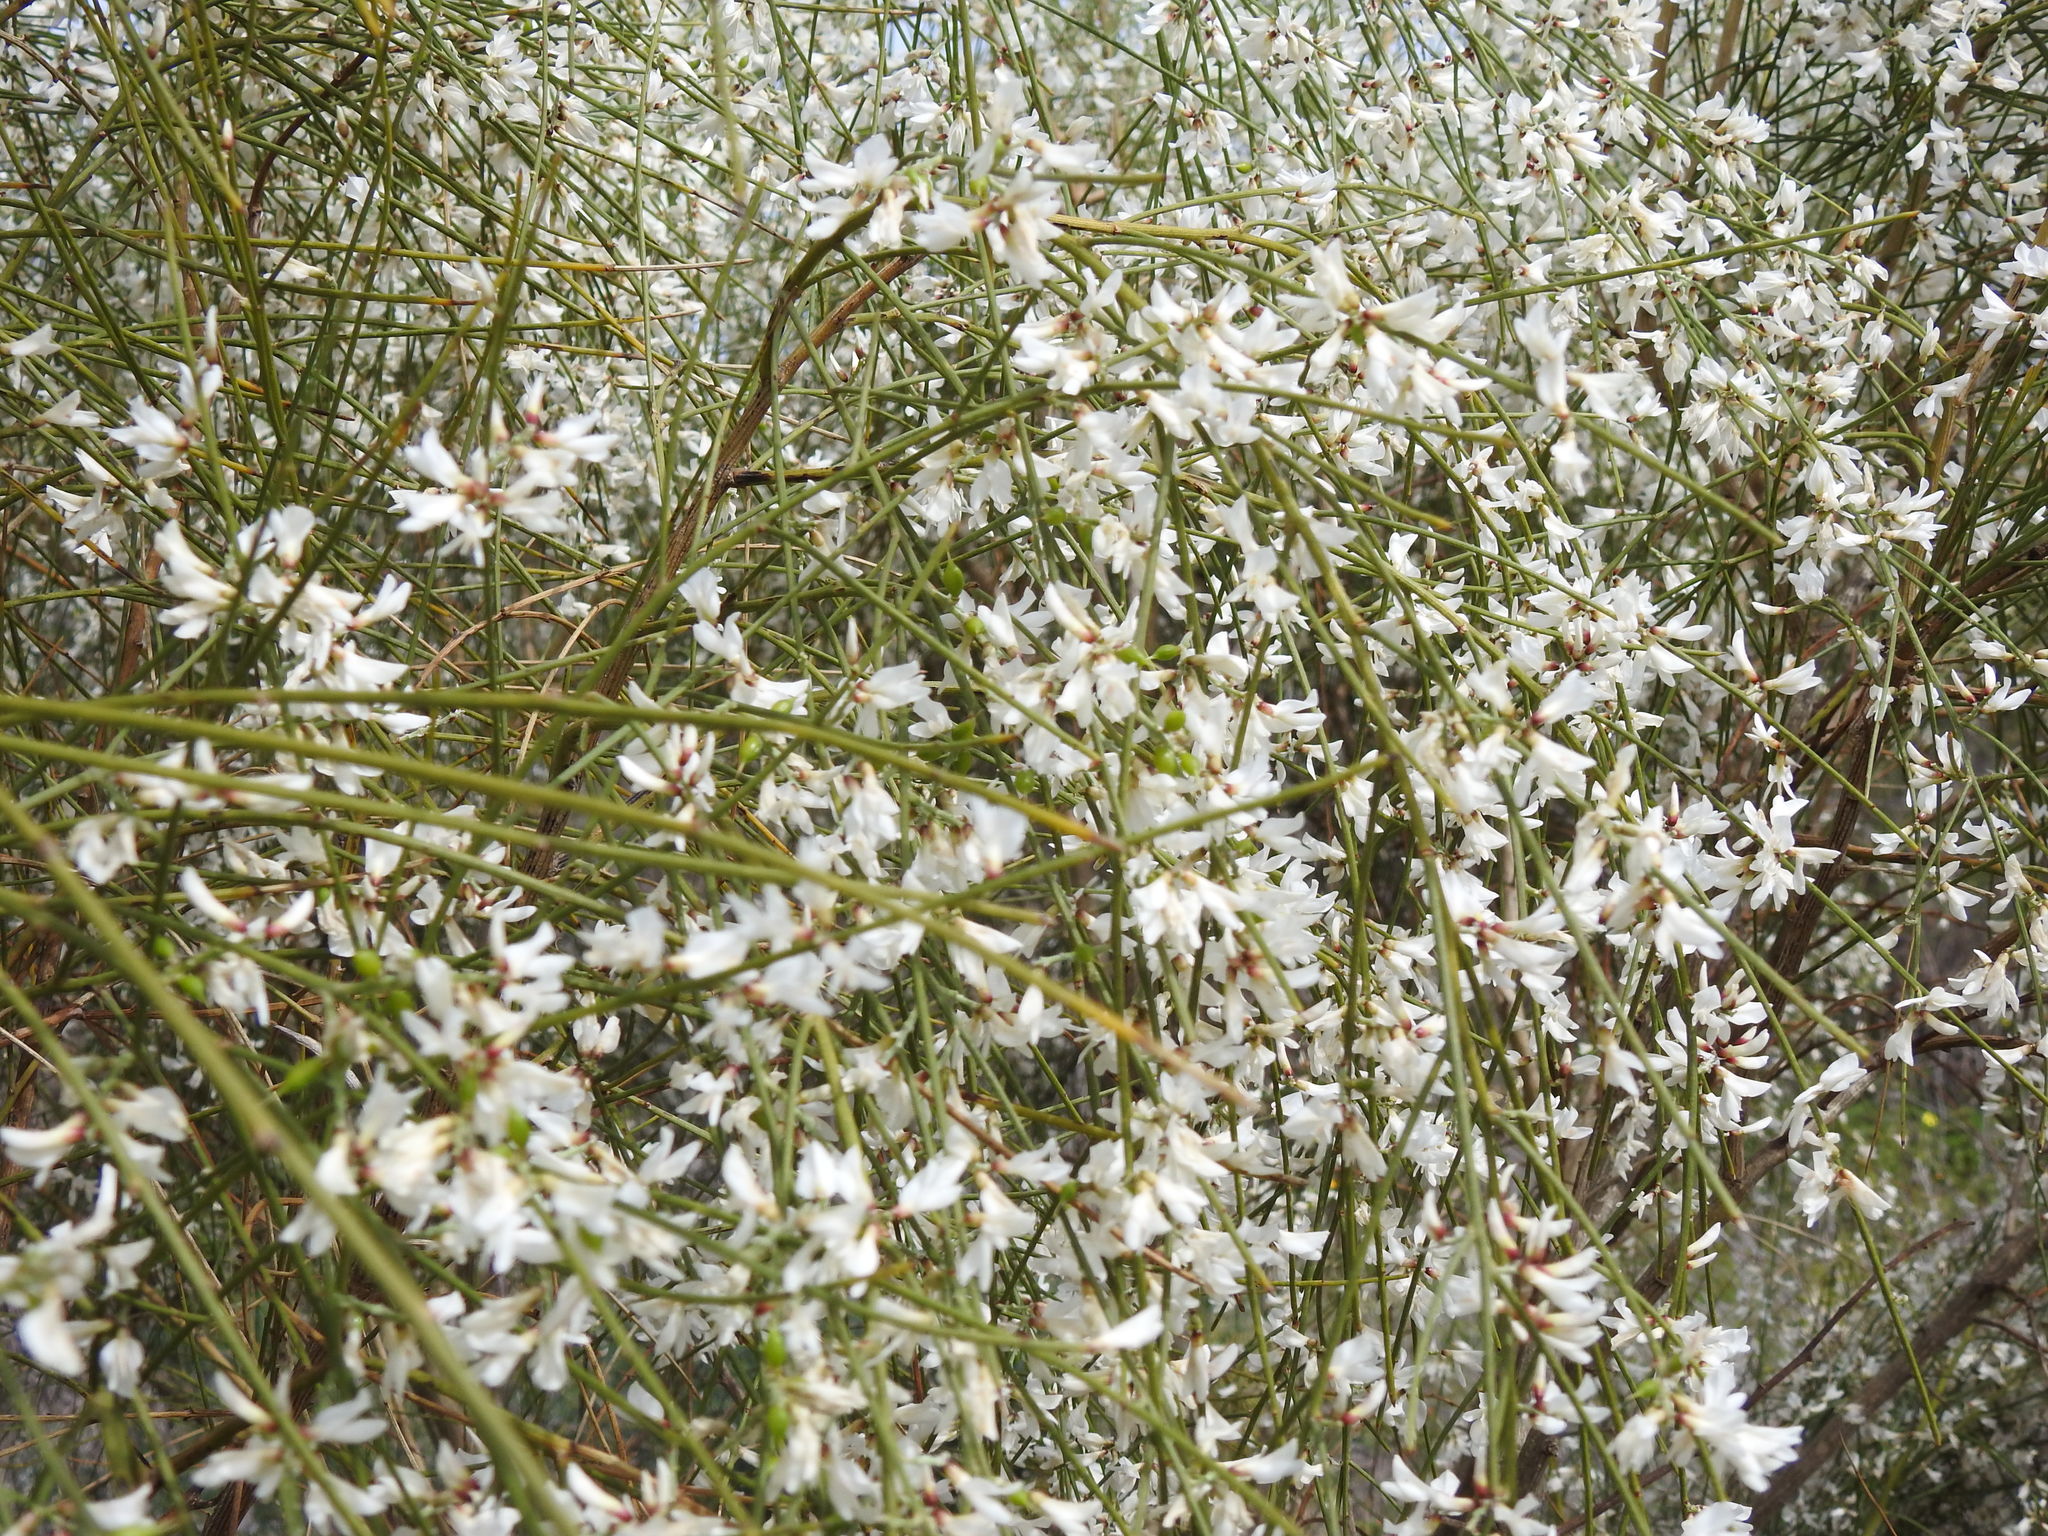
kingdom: Plantae
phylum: Tracheophyta
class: Magnoliopsida
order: Fabales
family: Fabaceae
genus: Retama
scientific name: Retama monosperma
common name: Bridal broom
